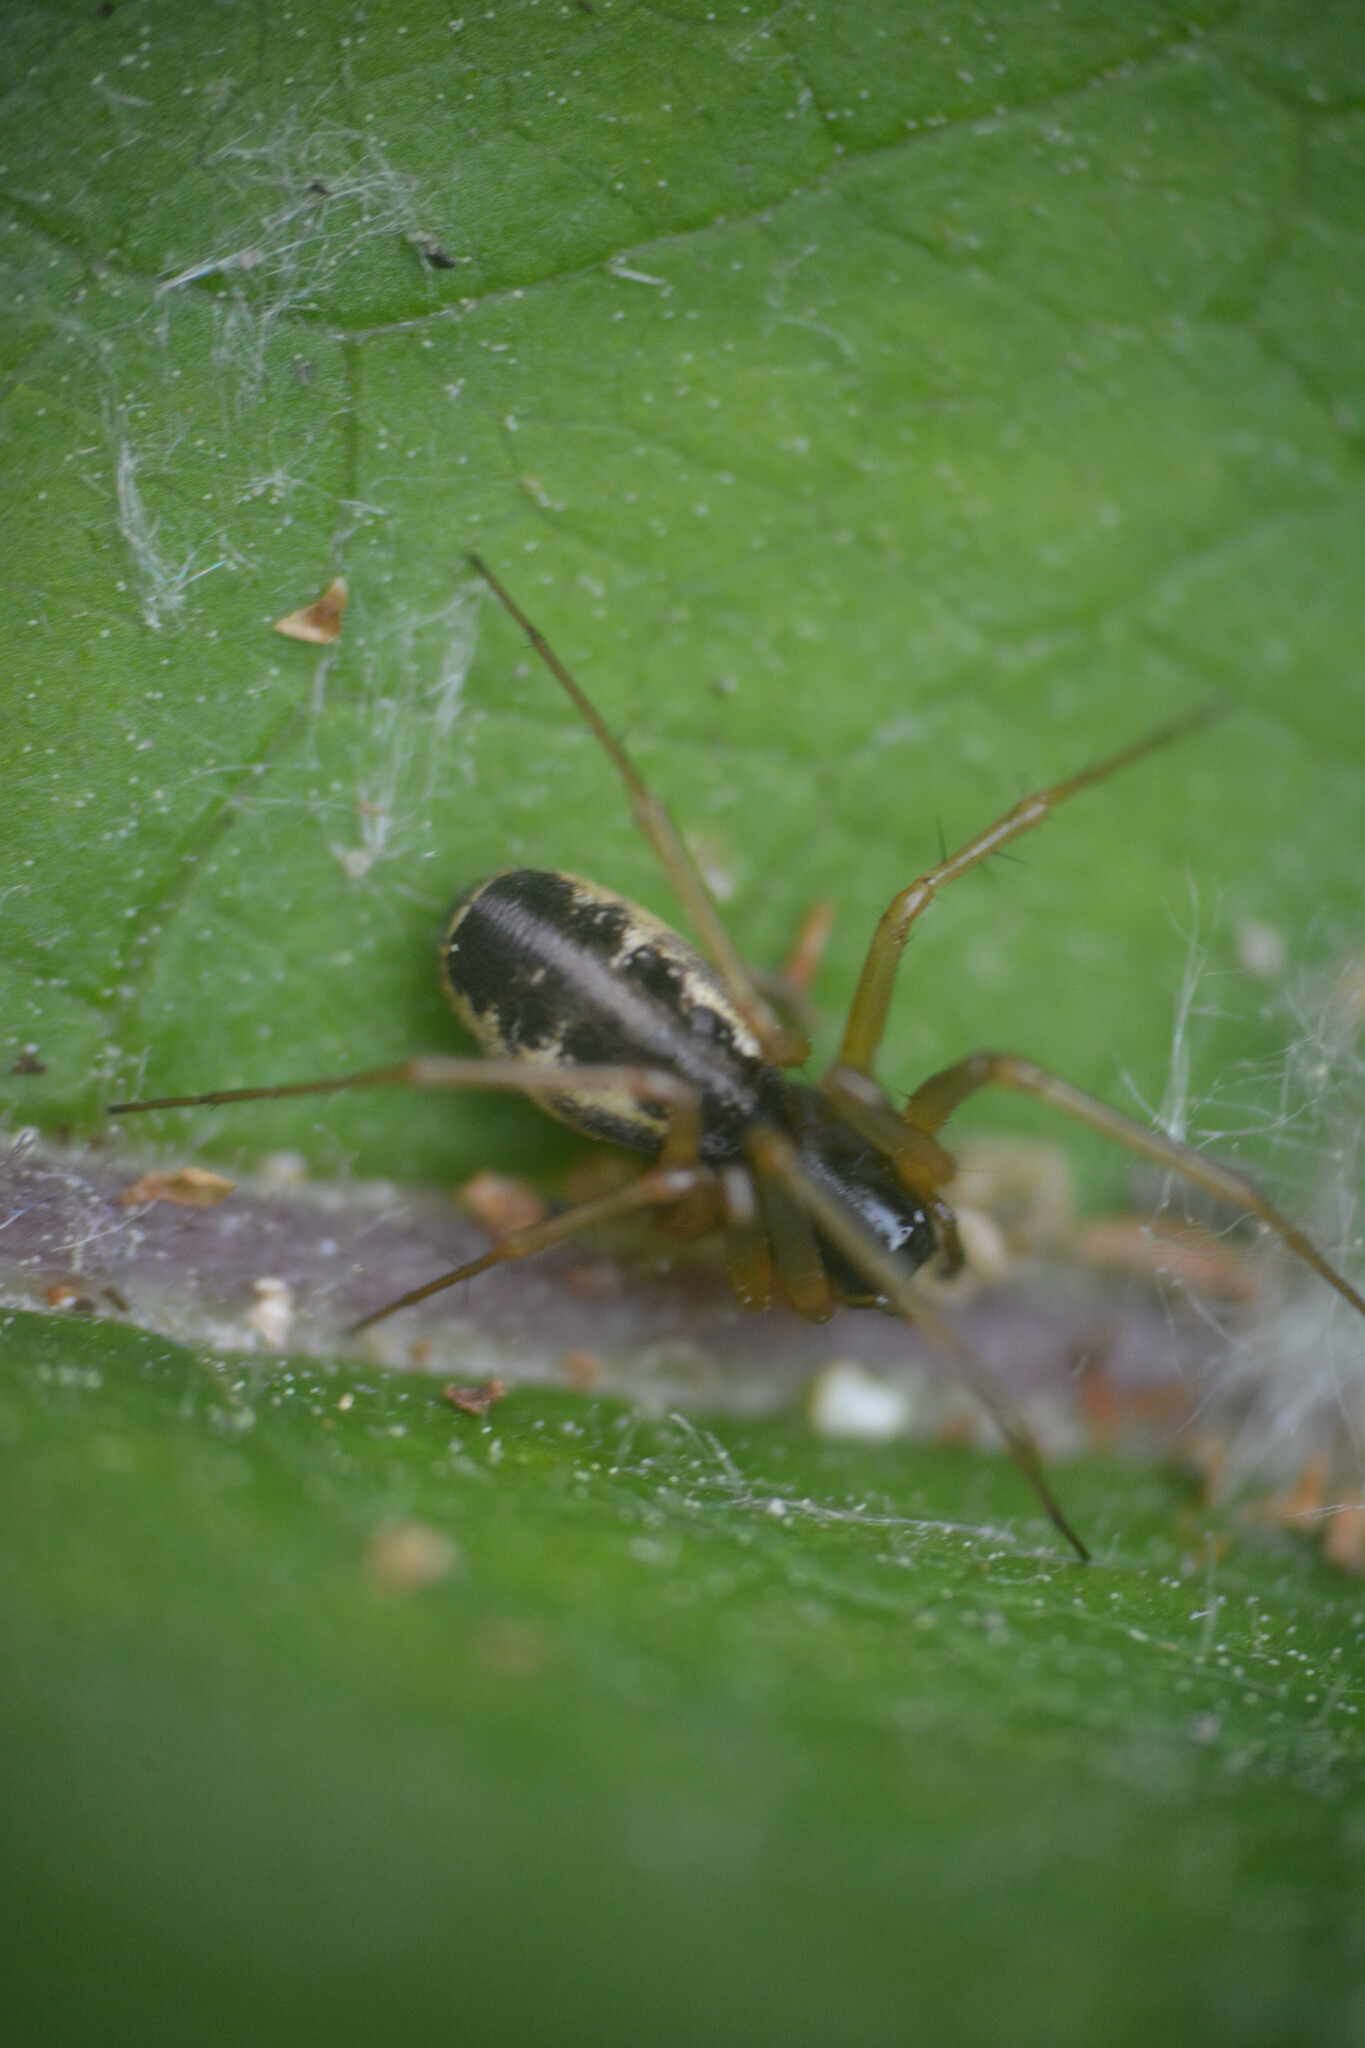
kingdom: Animalia
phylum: Arthropoda
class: Arachnida
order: Araneae
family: Linyphiidae
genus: Linyphia
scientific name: Linyphia hortensis
